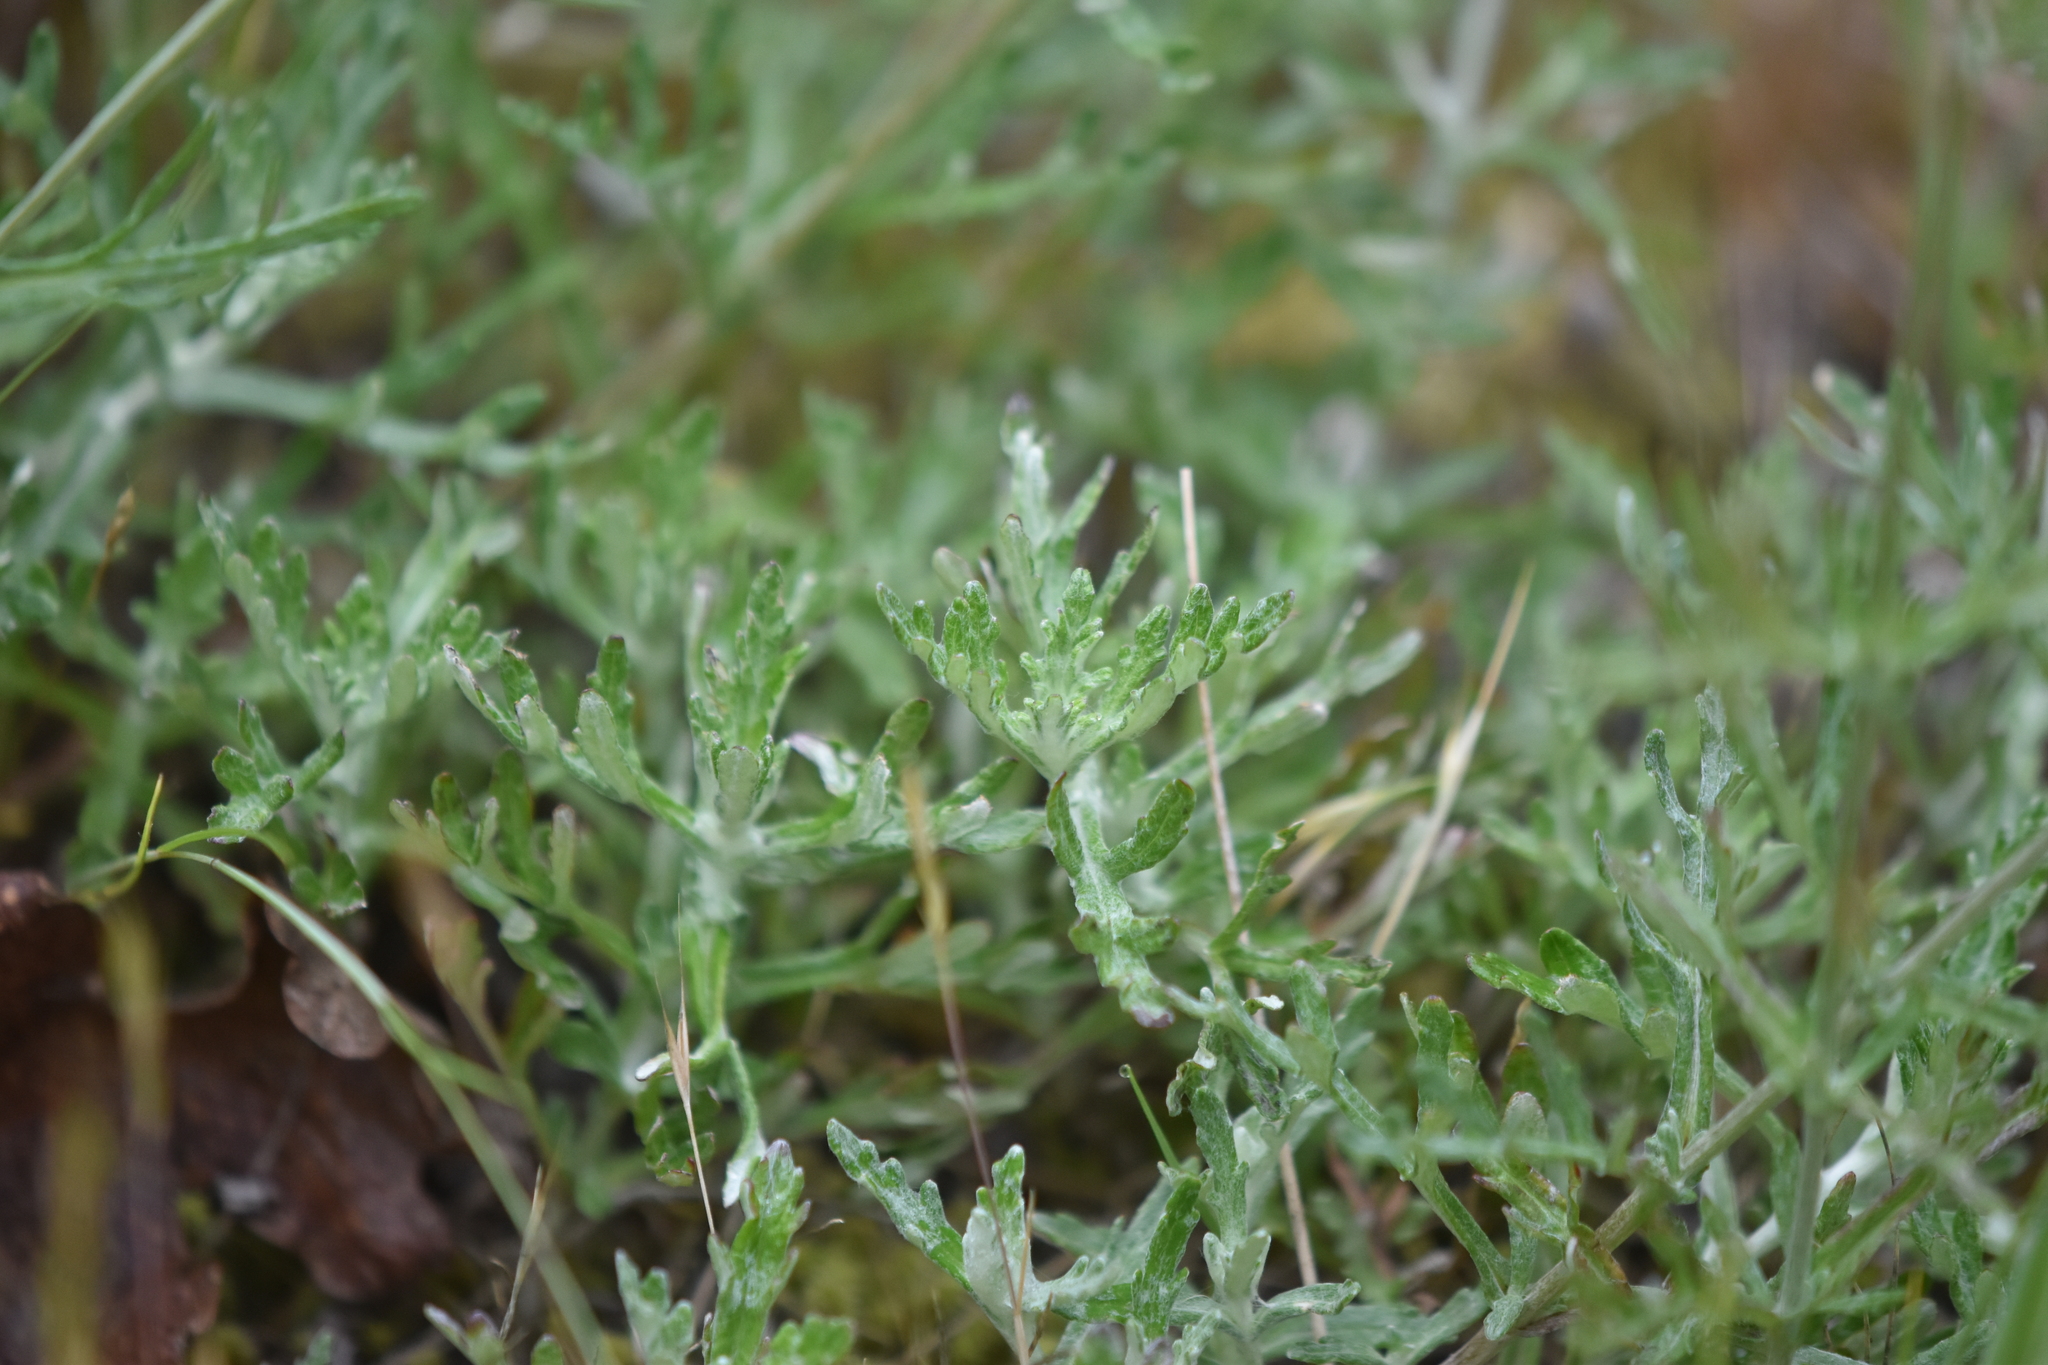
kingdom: Plantae
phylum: Tracheophyta
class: Magnoliopsida
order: Asterales
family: Asteraceae
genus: Eriophyllum
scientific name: Eriophyllum lanatum
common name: Common woolly-sunflower
